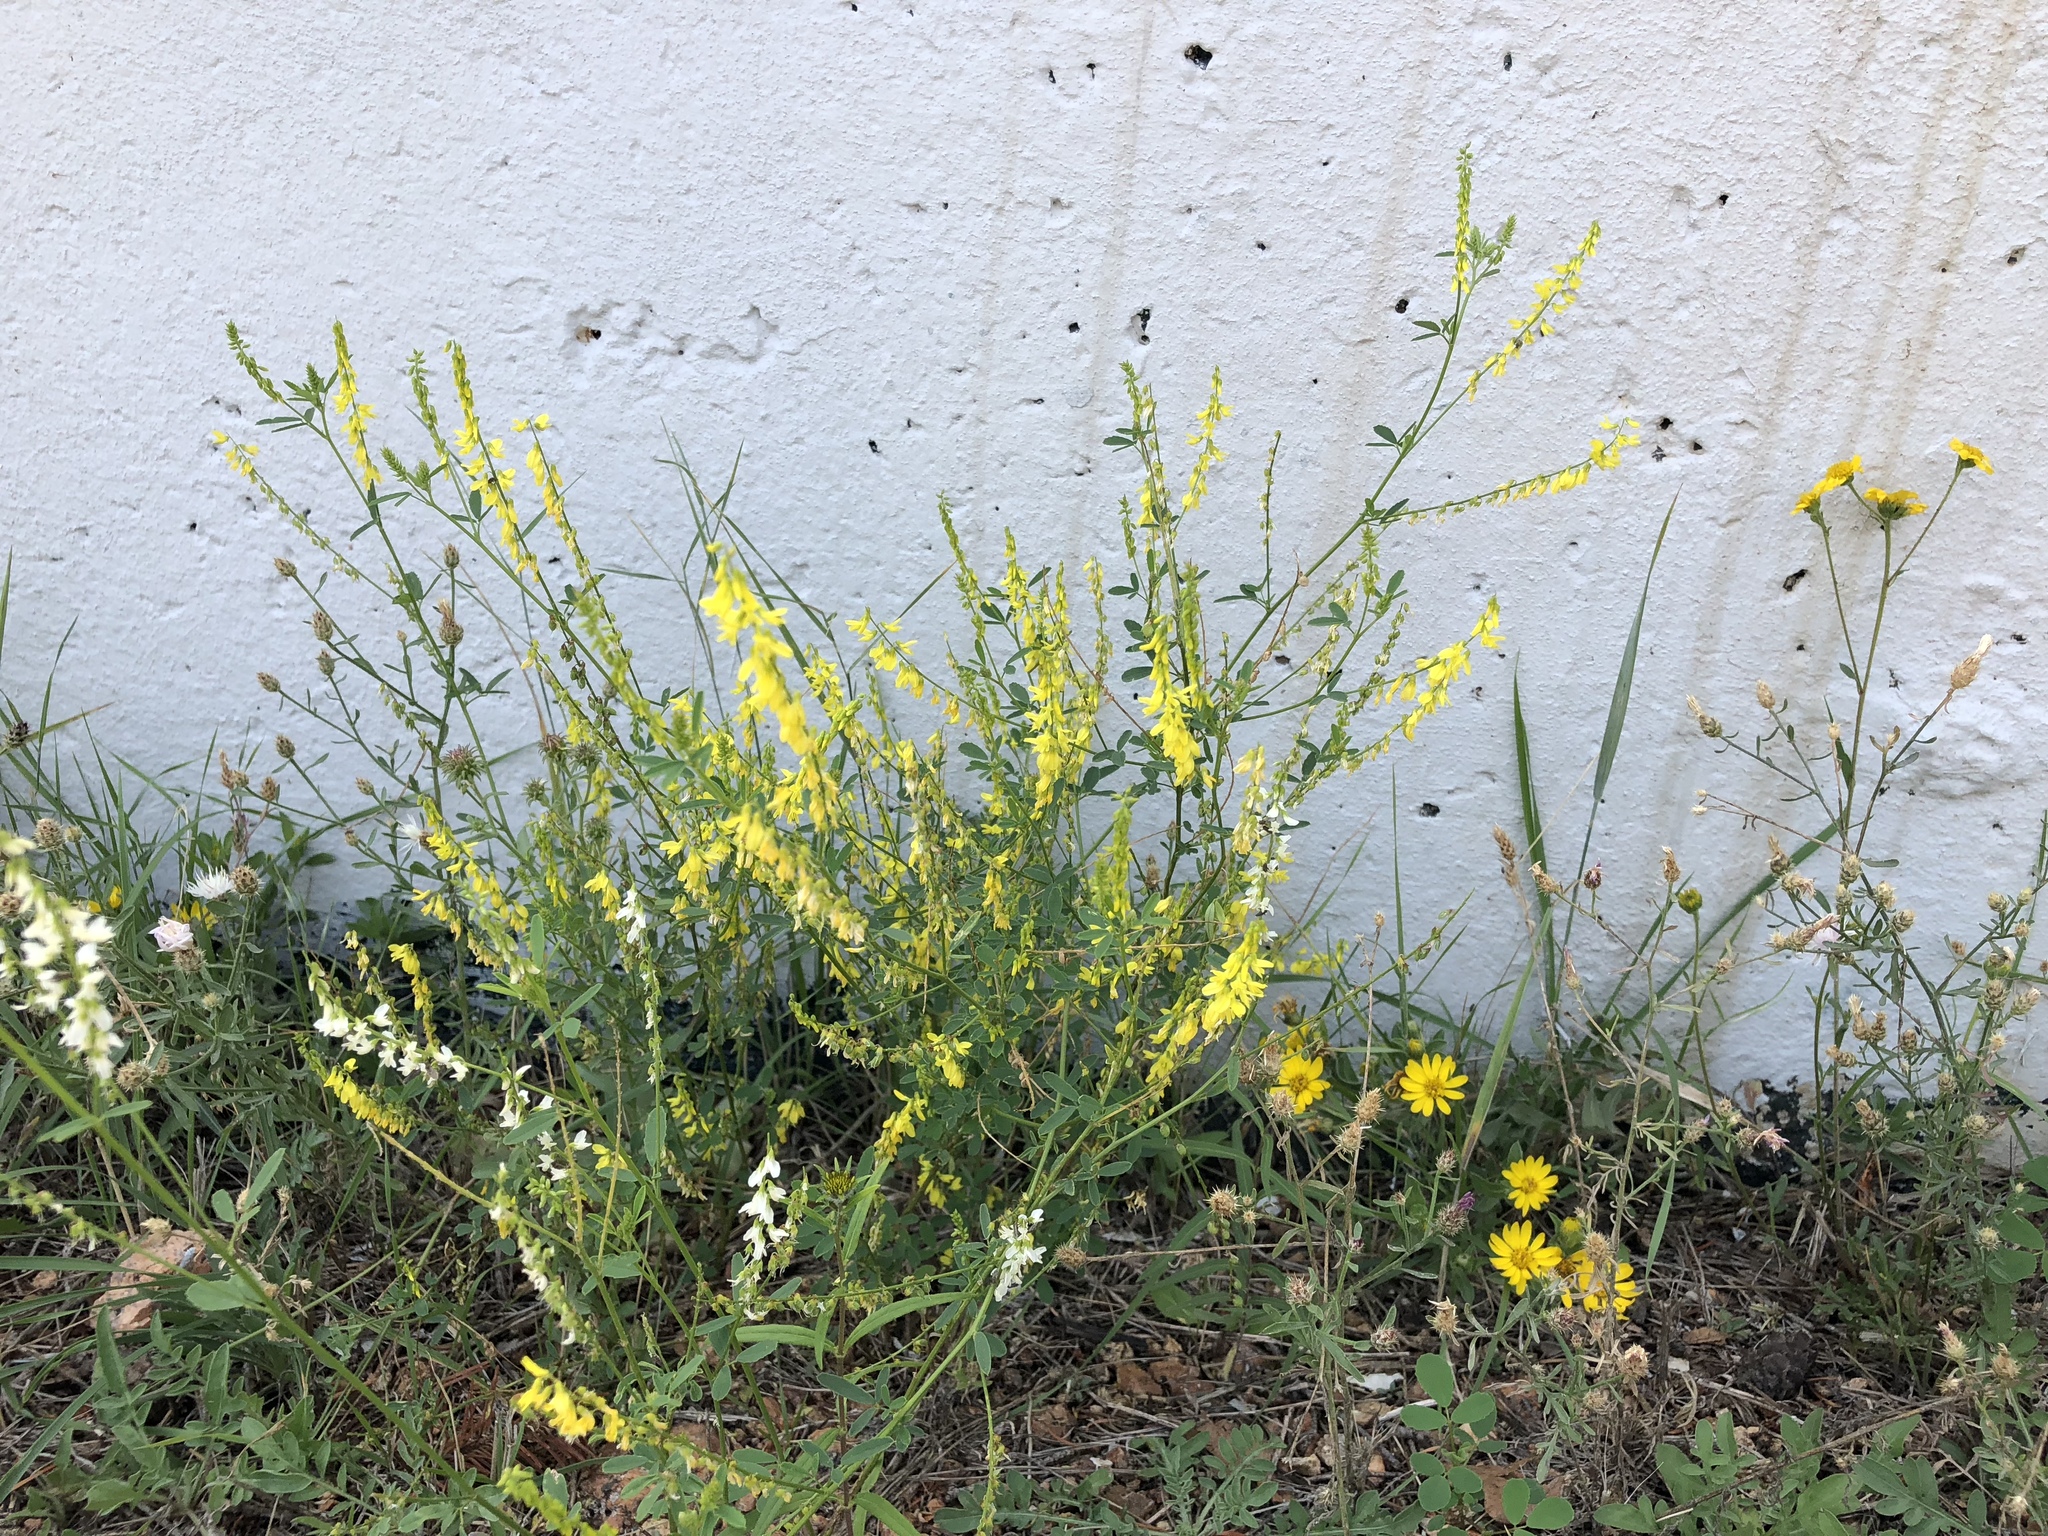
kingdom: Plantae
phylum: Tracheophyta
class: Magnoliopsida
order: Fabales
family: Fabaceae
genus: Melilotus
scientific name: Melilotus officinalis
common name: Sweetclover
